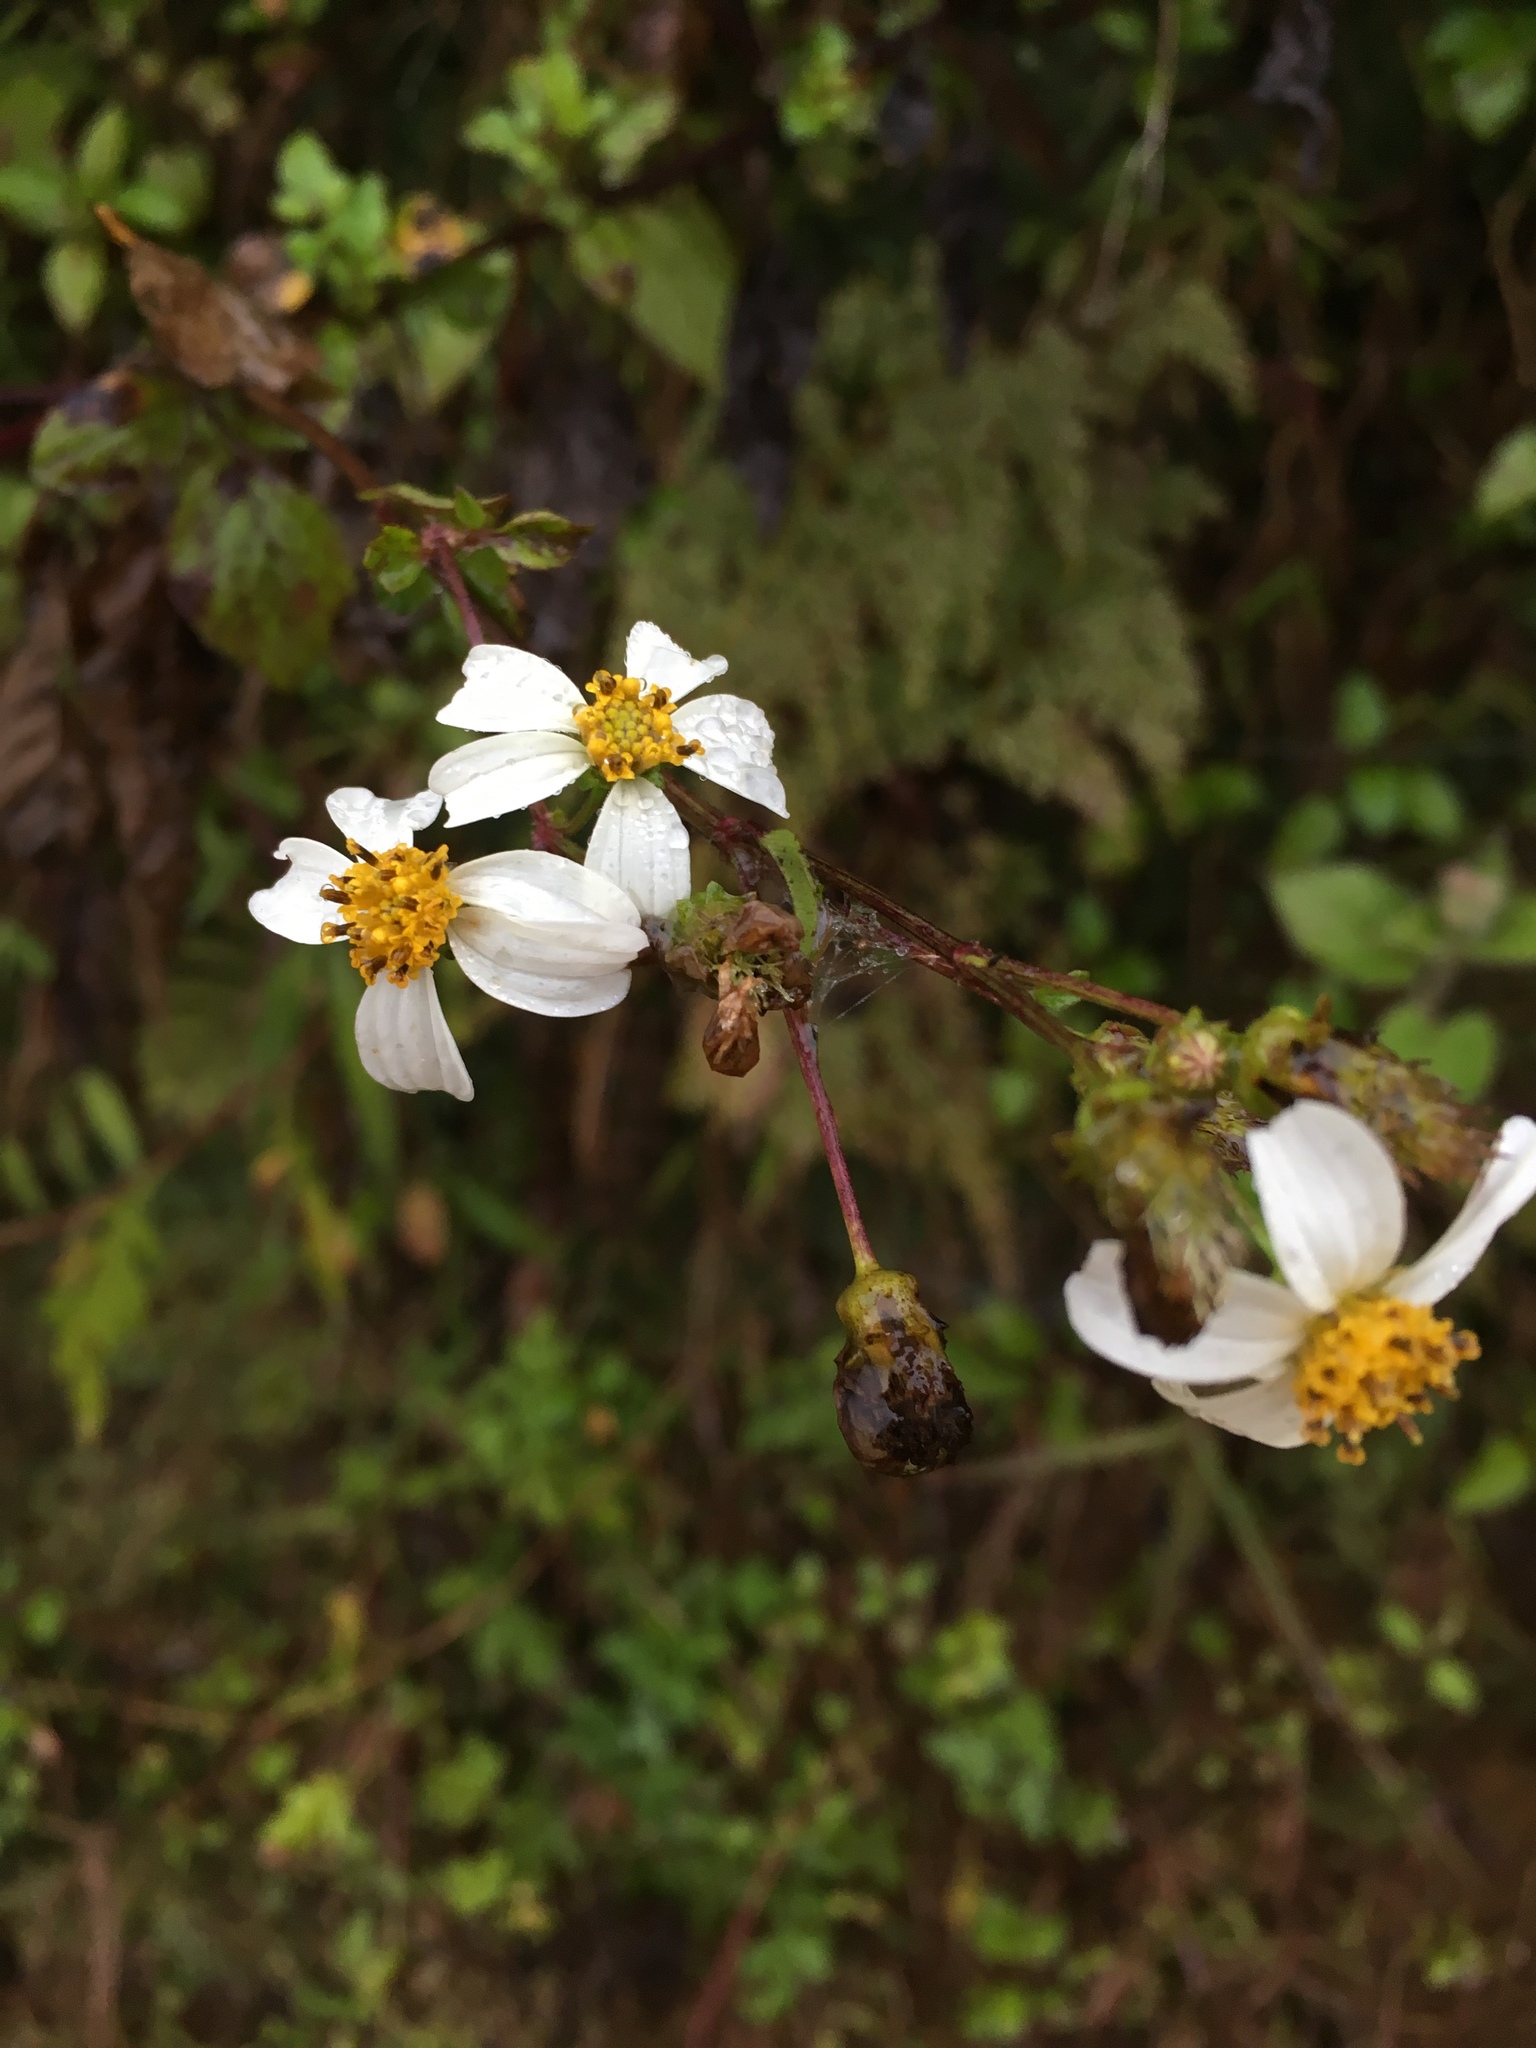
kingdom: Plantae
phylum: Tracheophyta
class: Magnoliopsida
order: Asterales
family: Asteraceae
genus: Bidens
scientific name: Bidens pilosa
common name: Black-jack
